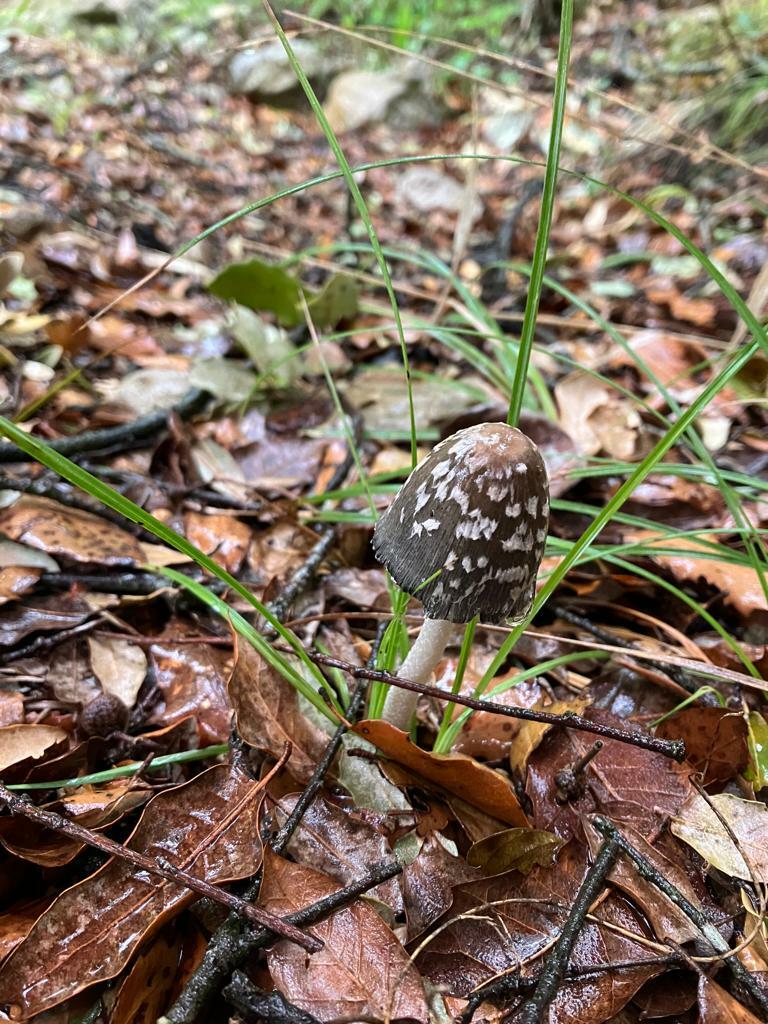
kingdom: Fungi
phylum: Basidiomycota
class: Agaricomycetes
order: Agaricales
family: Psathyrellaceae
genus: Coprinopsis
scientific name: Coprinopsis picacea
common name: Magpie inkcap
